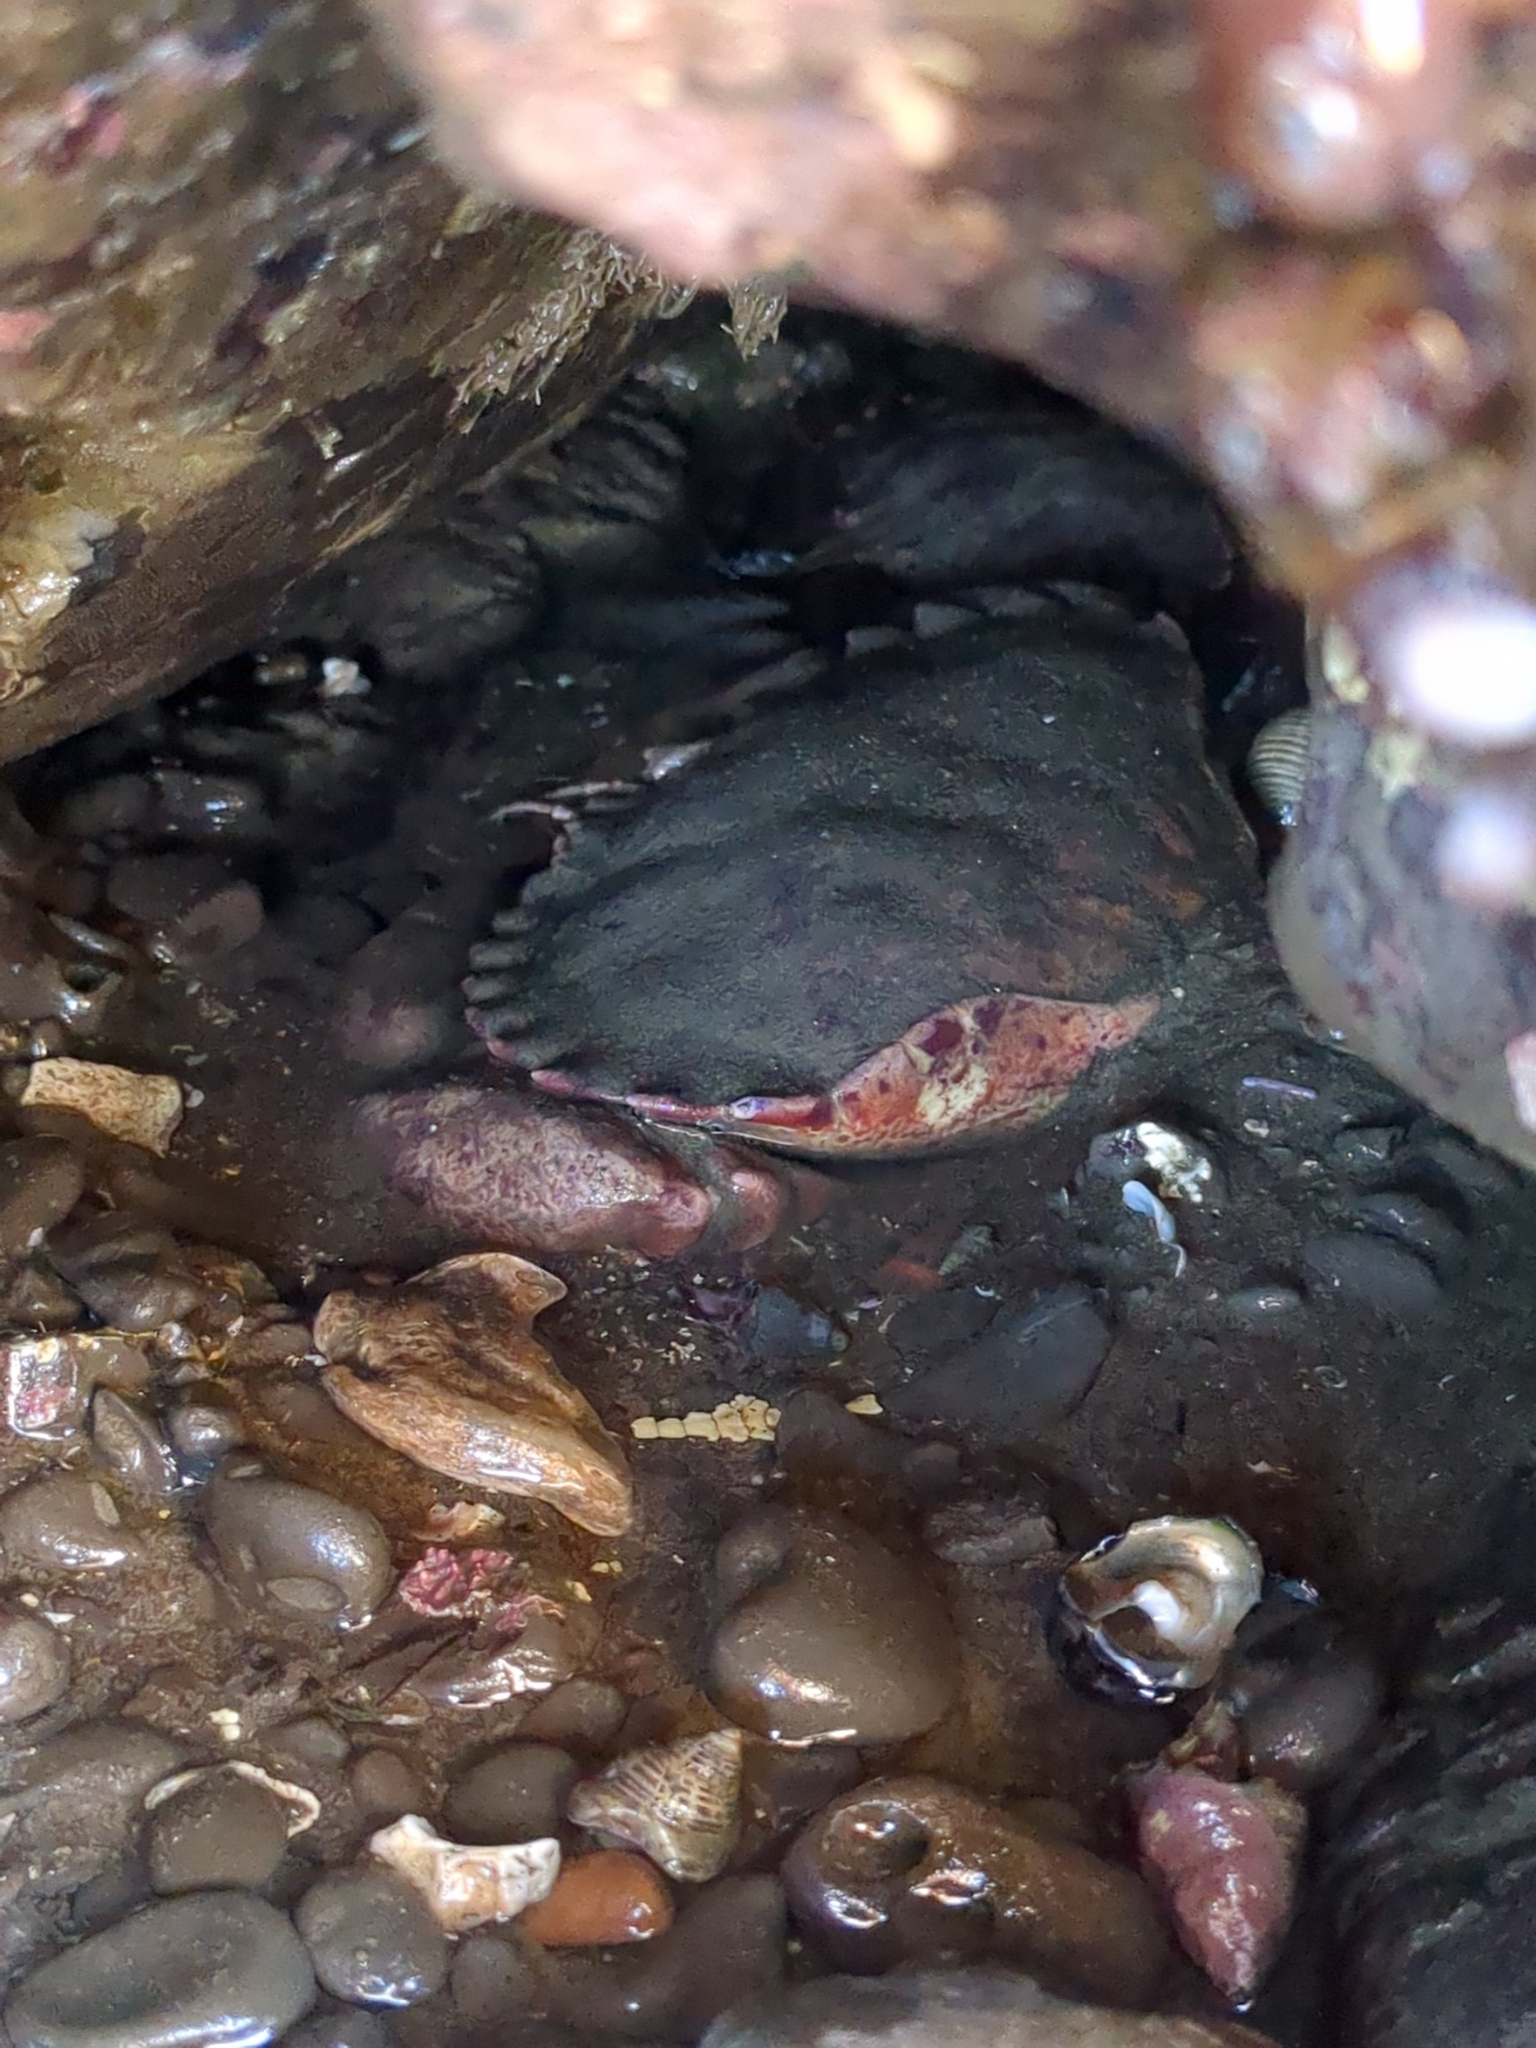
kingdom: Animalia
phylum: Arthropoda
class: Malacostraca
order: Decapoda
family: Cancridae
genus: Romaleon
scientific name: Romaleon antennarium
